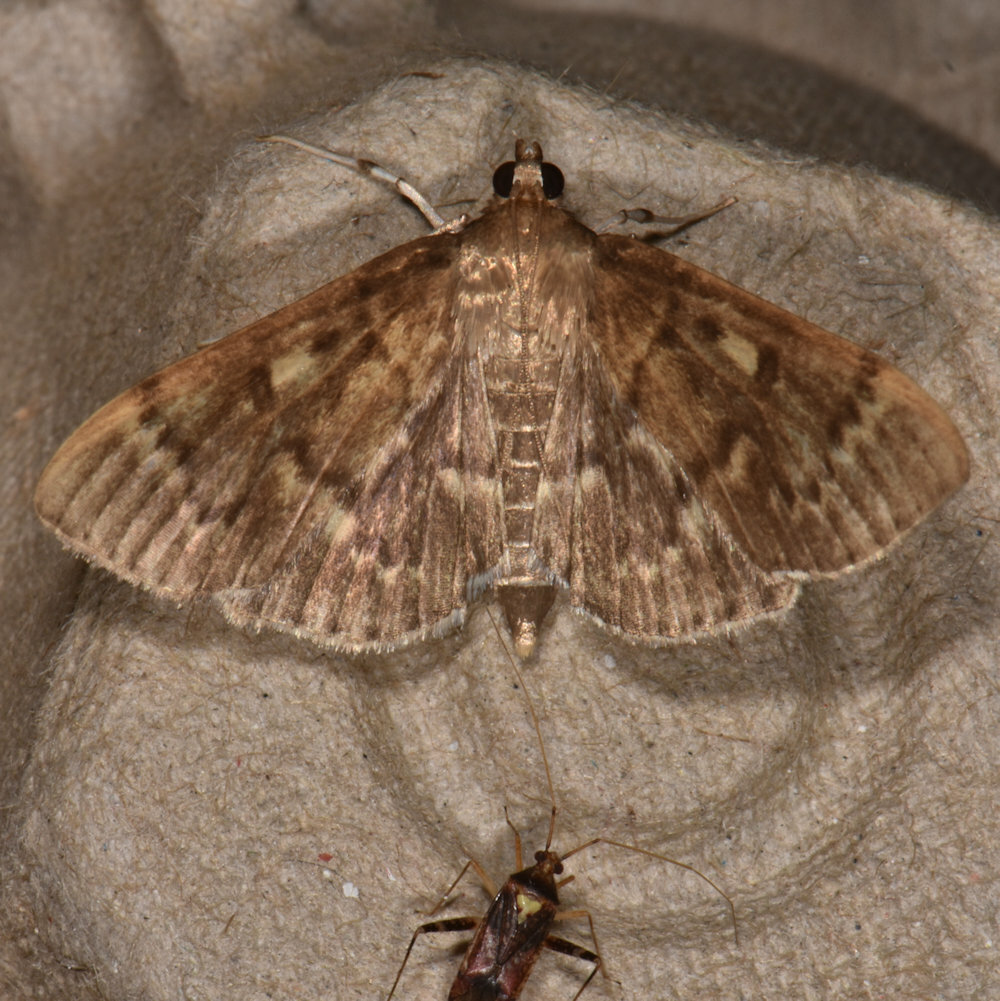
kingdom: Animalia
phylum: Arthropoda
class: Insecta
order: Lepidoptera
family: Crambidae
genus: Herpetogramma
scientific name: Herpetogramma aeglealis
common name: Serpentine webworm moth
